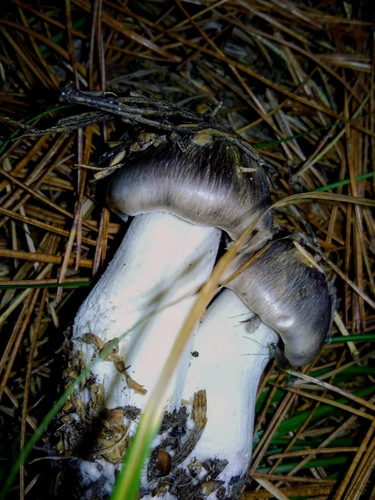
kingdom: Fungi
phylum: Basidiomycota
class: Agaricomycetes
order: Agaricales
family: Tricholomataceae
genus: Tricholoma
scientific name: Tricholoma portentosum
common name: Coalman
